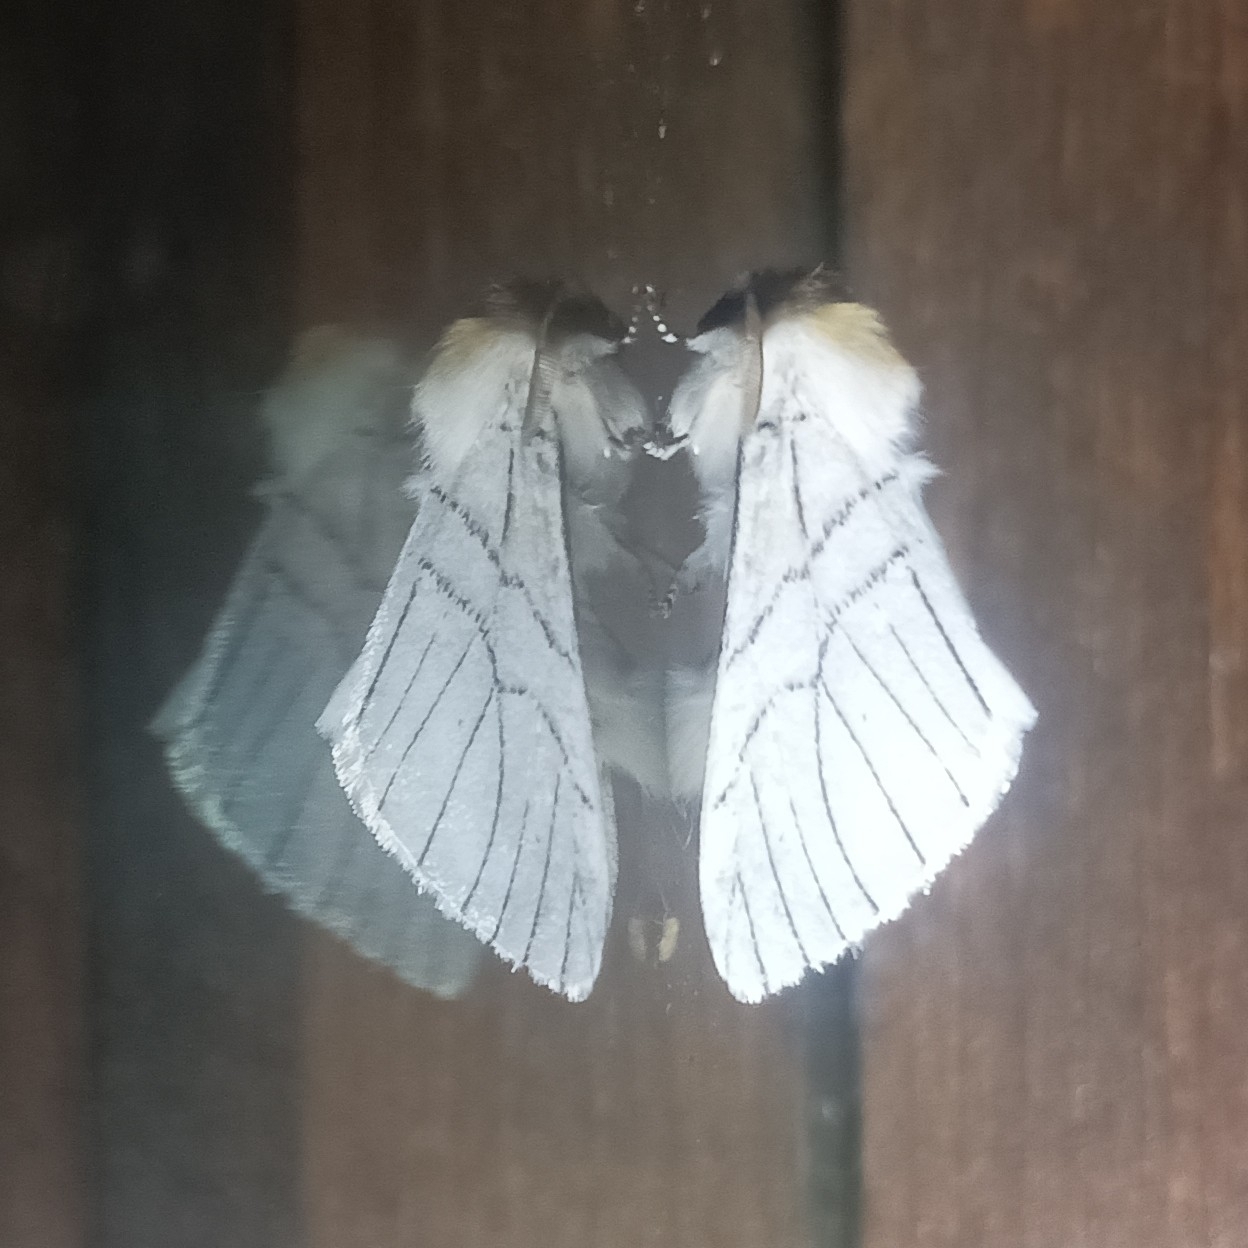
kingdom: Animalia
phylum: Arthropoda
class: Insecta
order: Lepidoptera
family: Notodontidae
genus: Oligoclona
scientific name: Oligoclona chrysolopha
